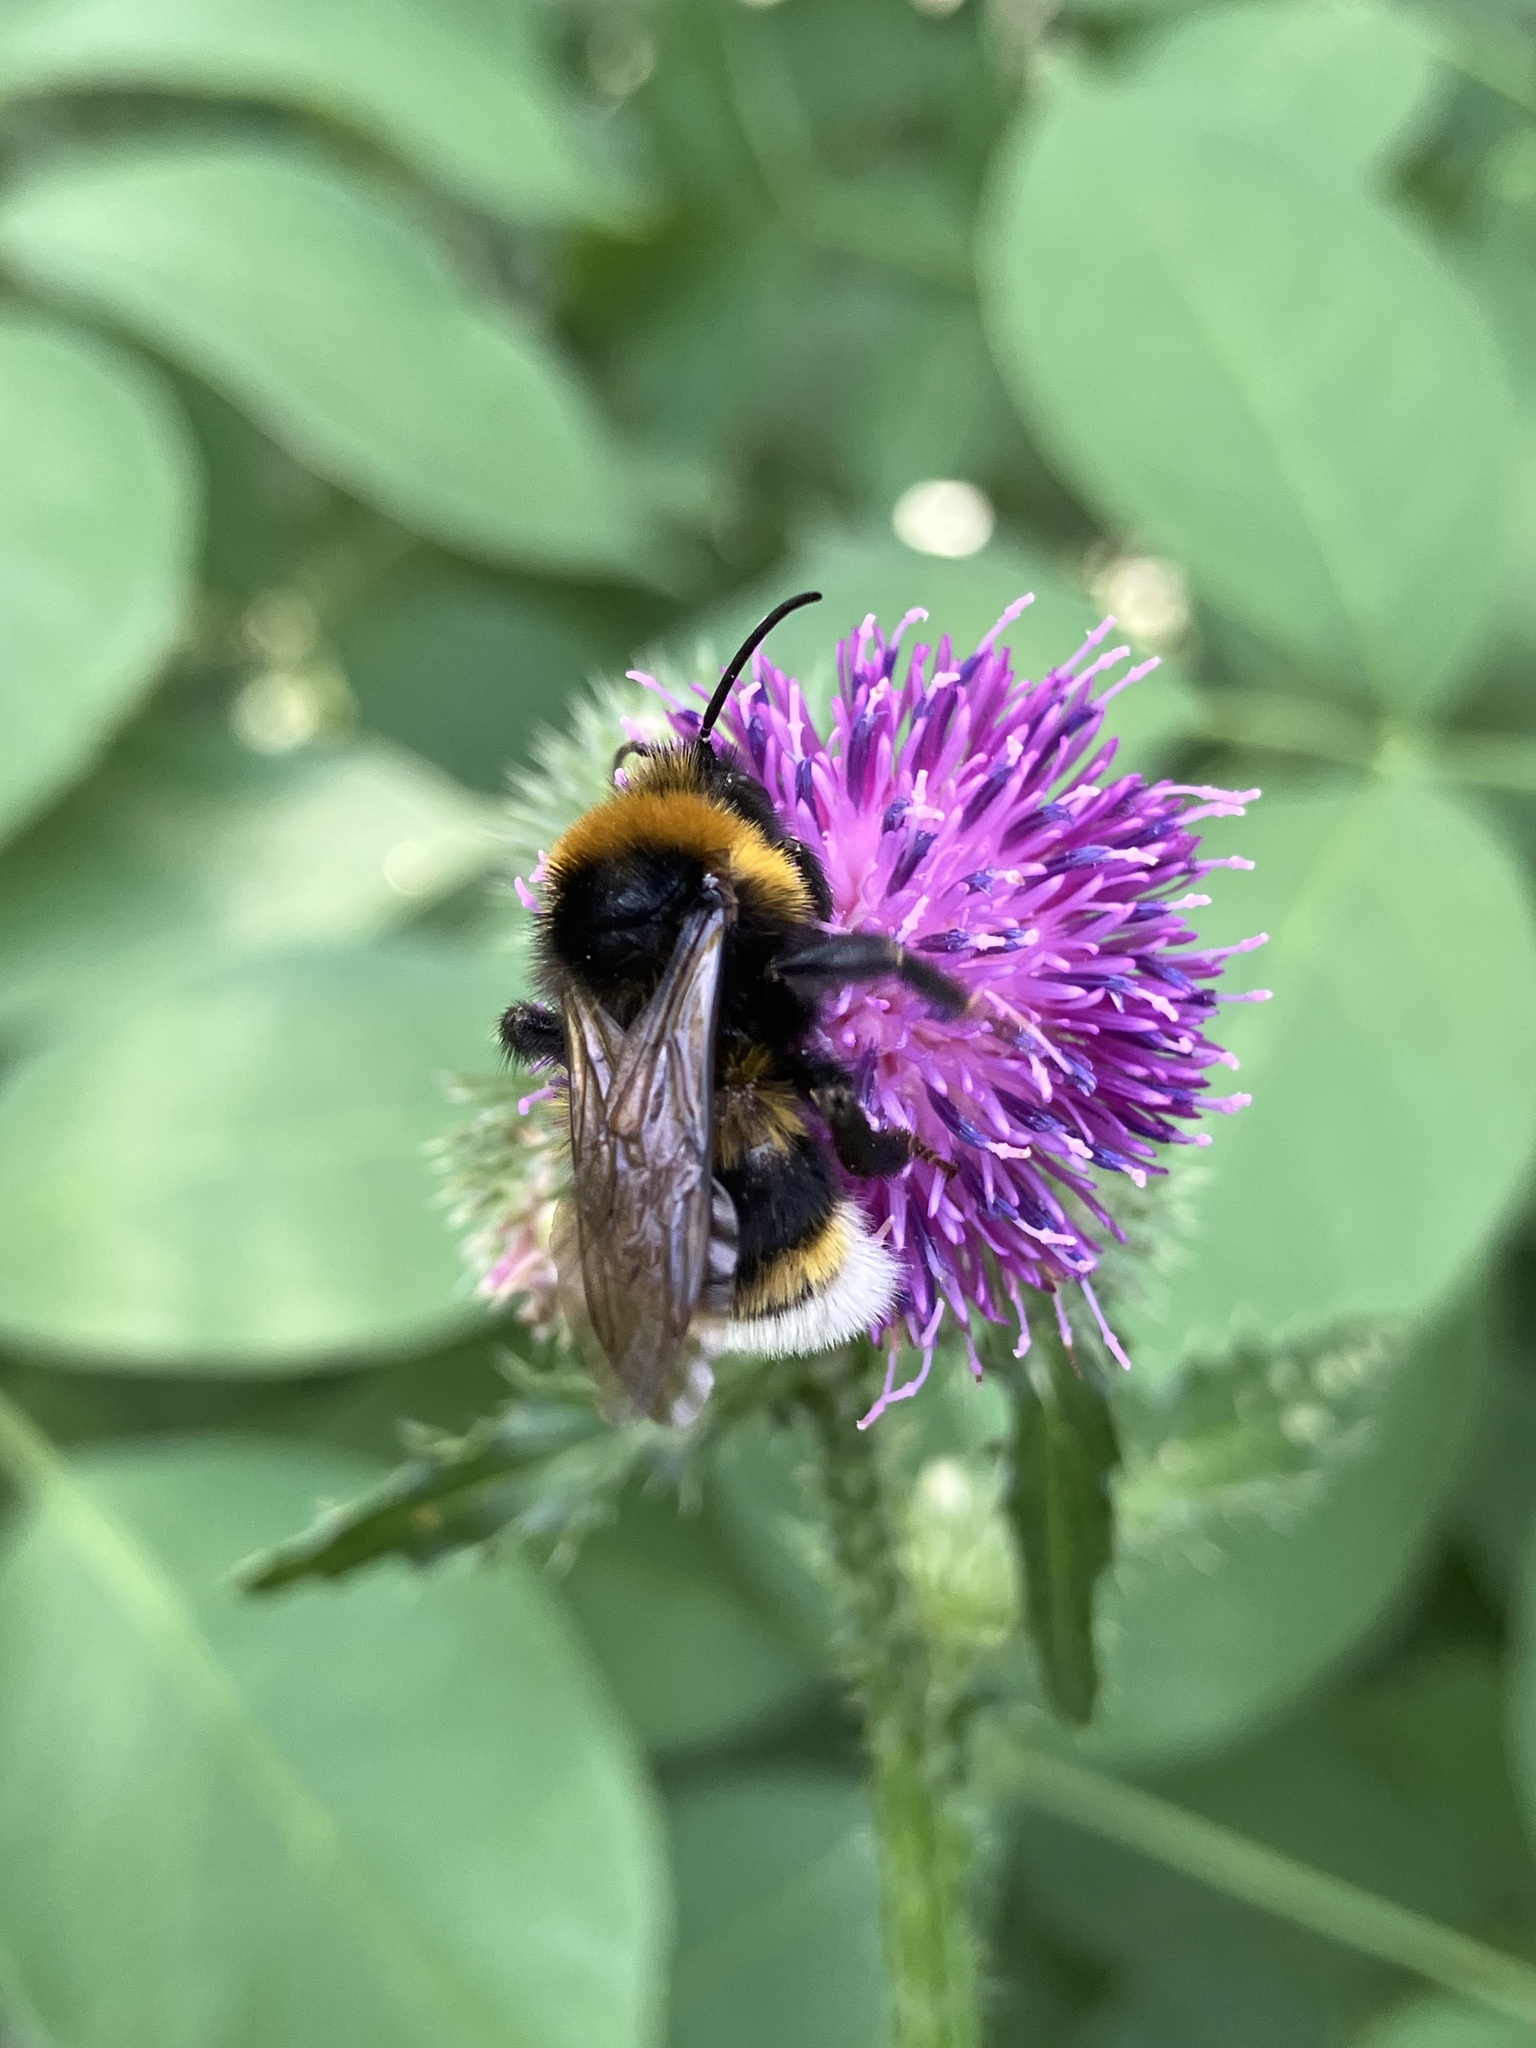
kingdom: Animalia
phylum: Arthropoda
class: Insecta
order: Hymenoptera
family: Apidae
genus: Bombus
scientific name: Bombus vestalis
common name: Vestal cuckoo bee
